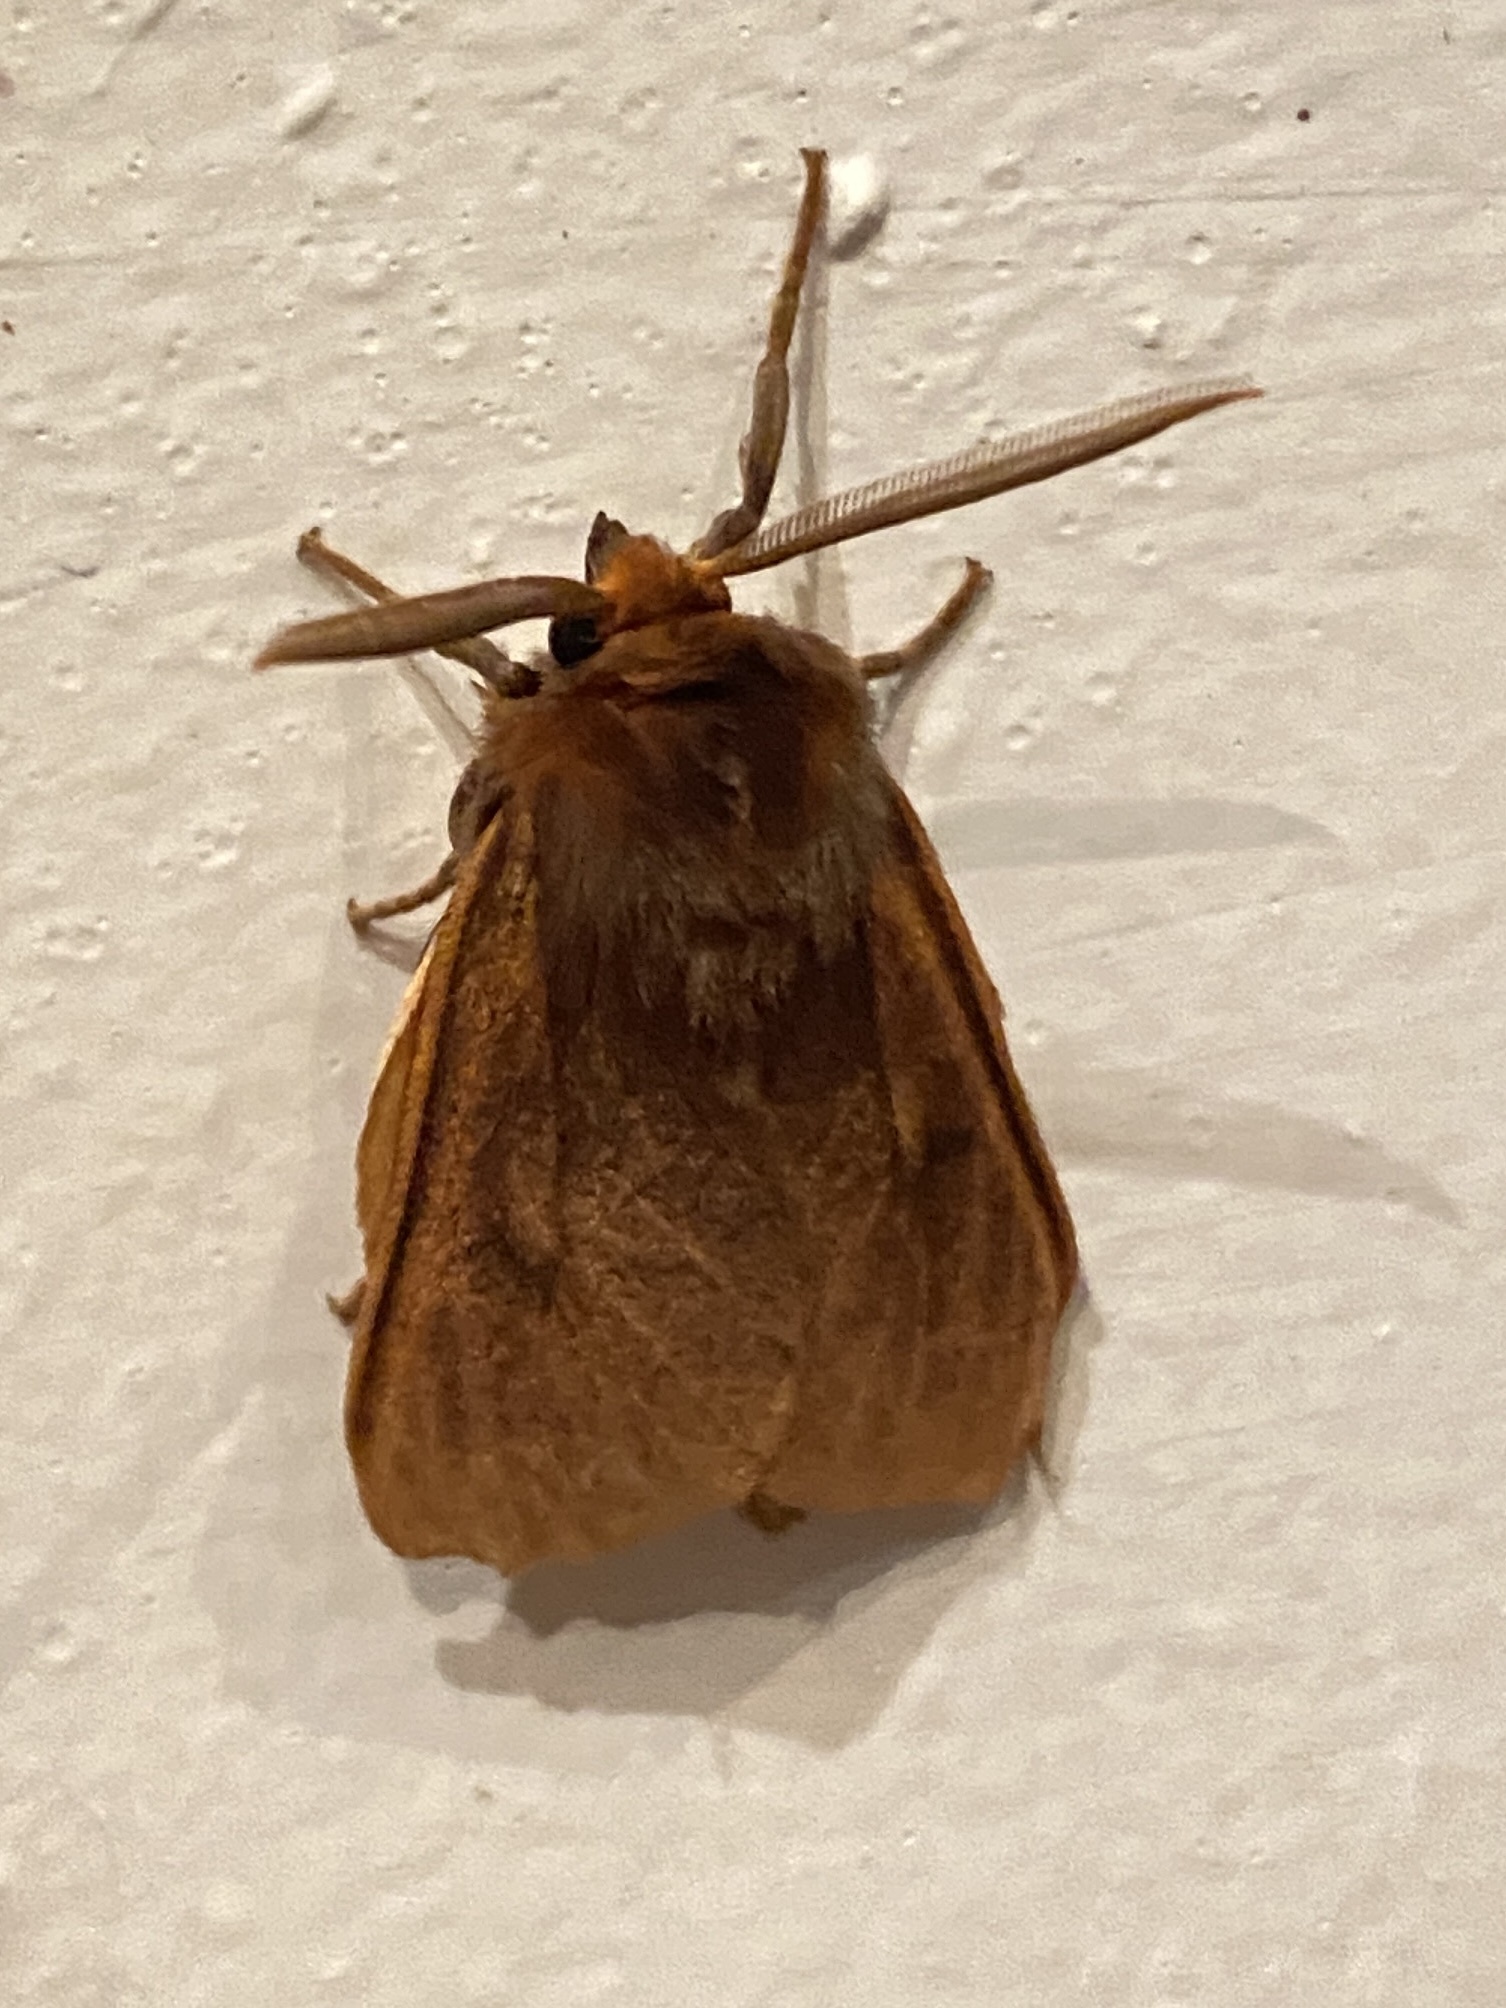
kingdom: Animalia
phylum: Arthropoda
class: Insecta
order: Lepidoptera
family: Erebidae
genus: Automolis
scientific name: Automolis jansei
